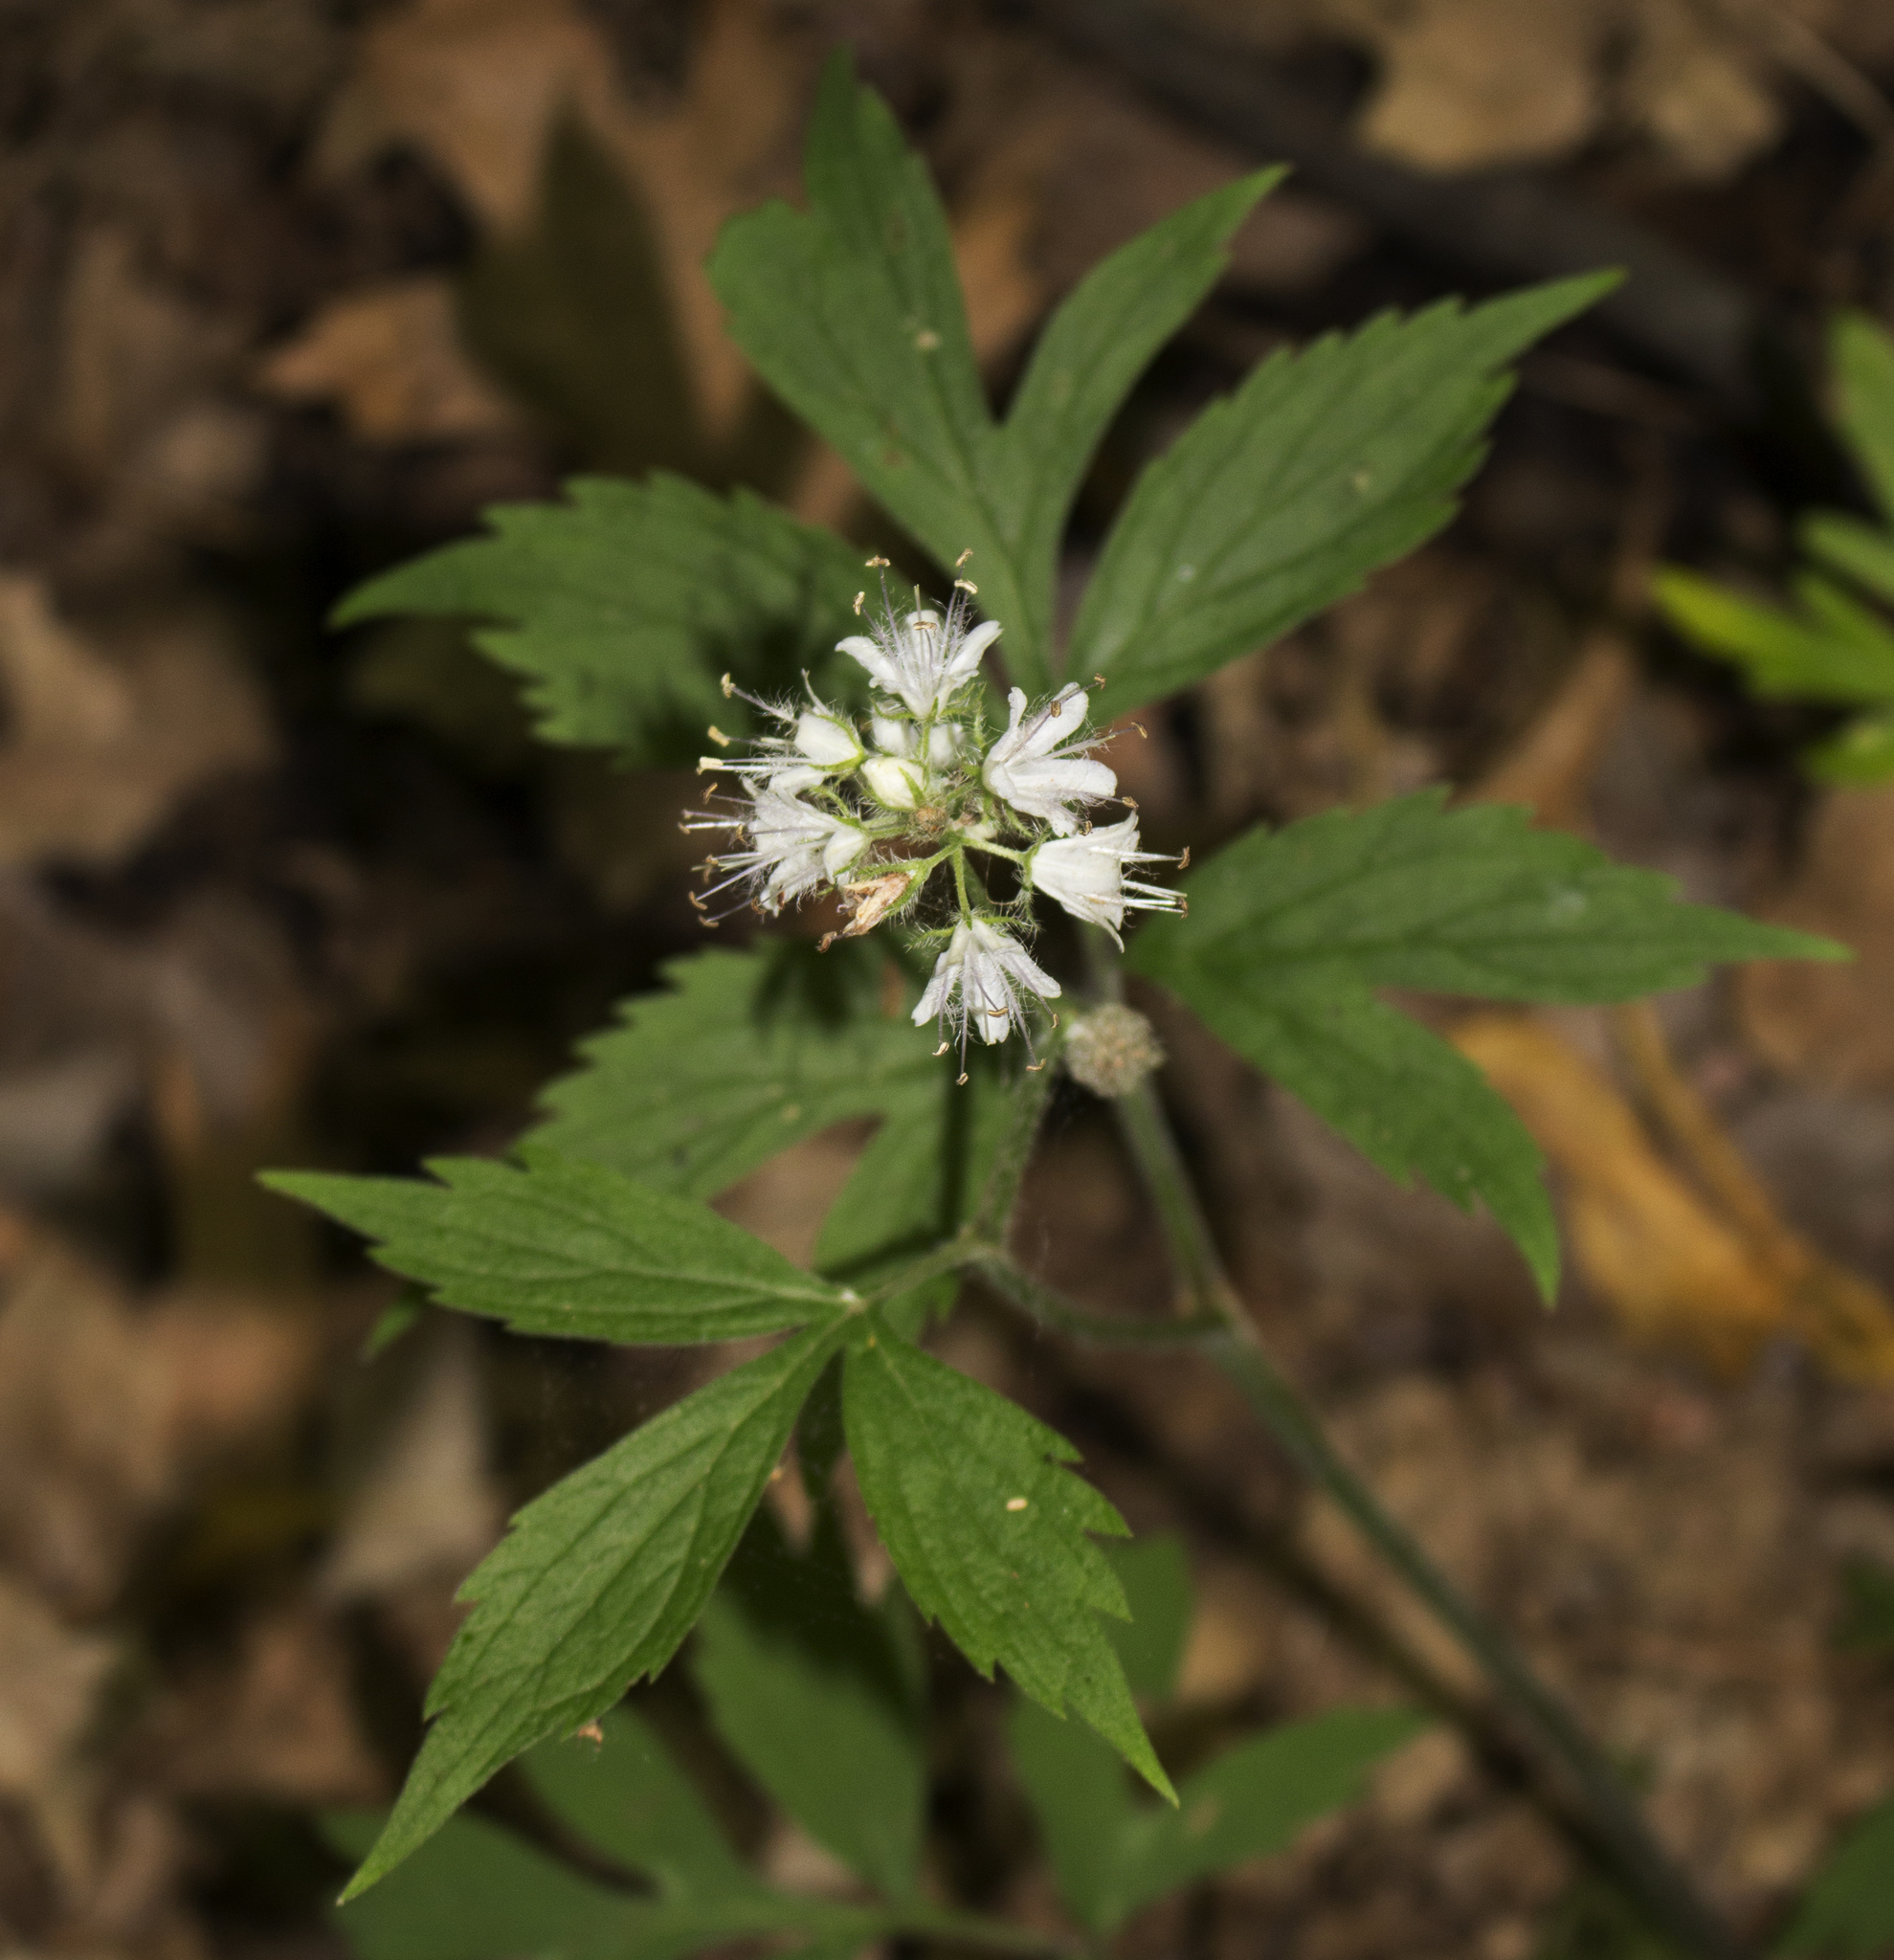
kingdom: Plantae
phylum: Tracheophyta
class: Magnoliopsida
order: Boraginales
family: Hydrophyllaceae
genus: Hydrophyllum
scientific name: Hydrophyllum virginianum
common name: Virginia waterleaf
